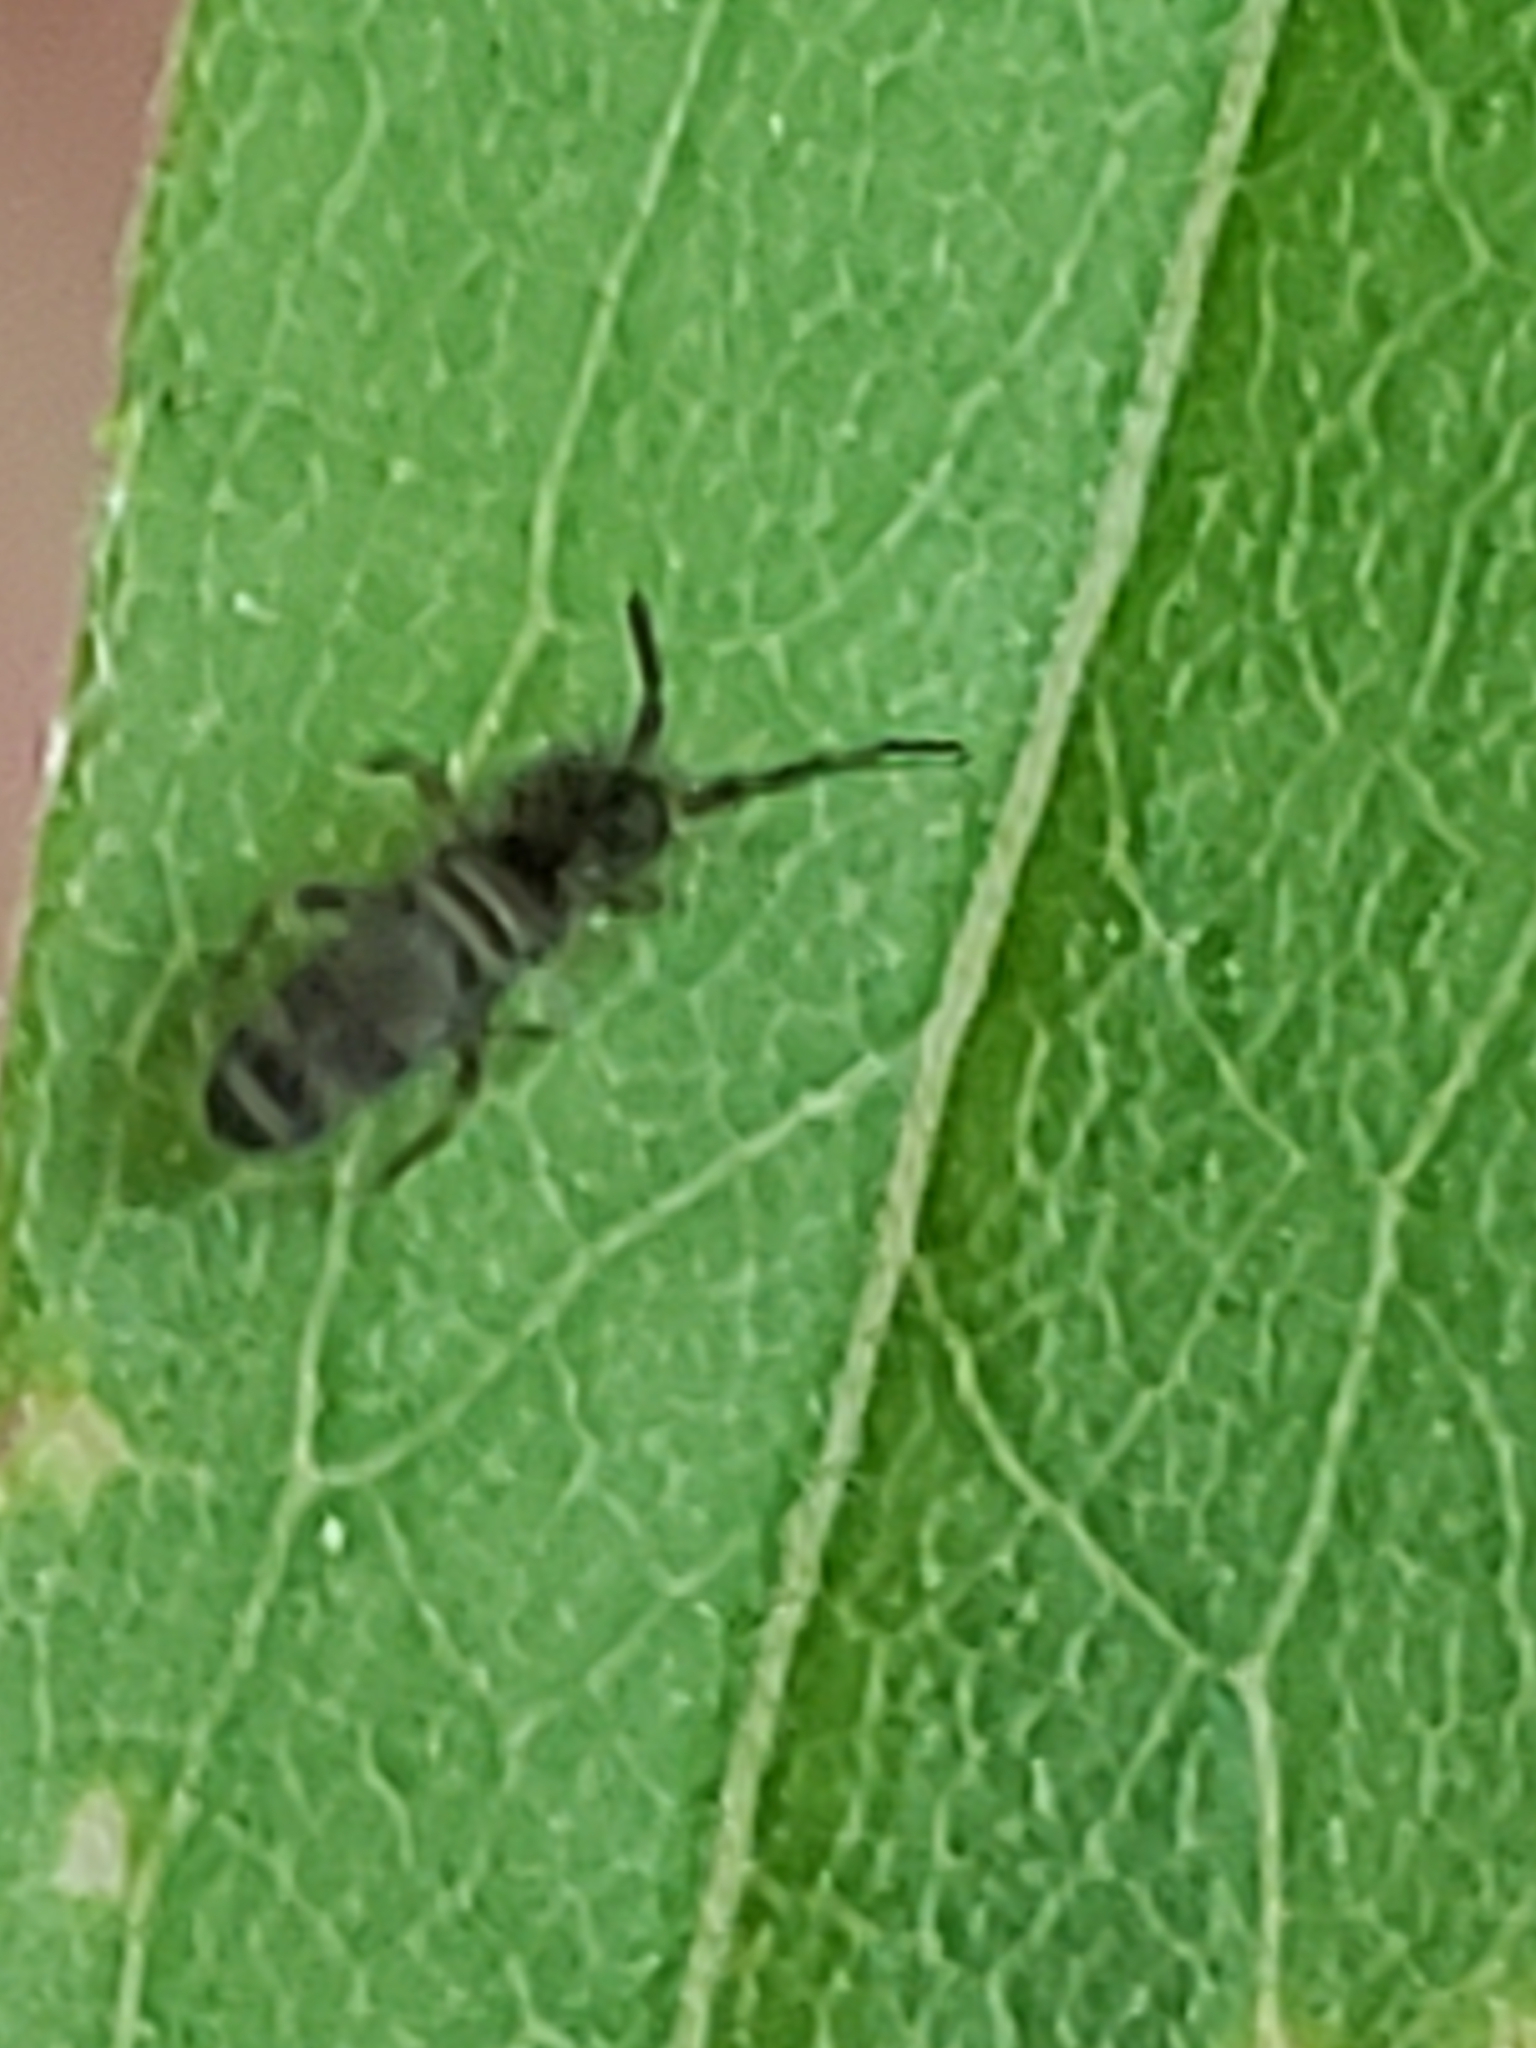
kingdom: Animalia
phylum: Arthropoda
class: Collembola
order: Entomobryomorpha
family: Entomobryidae
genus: Homidia
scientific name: Homidia sauteri
